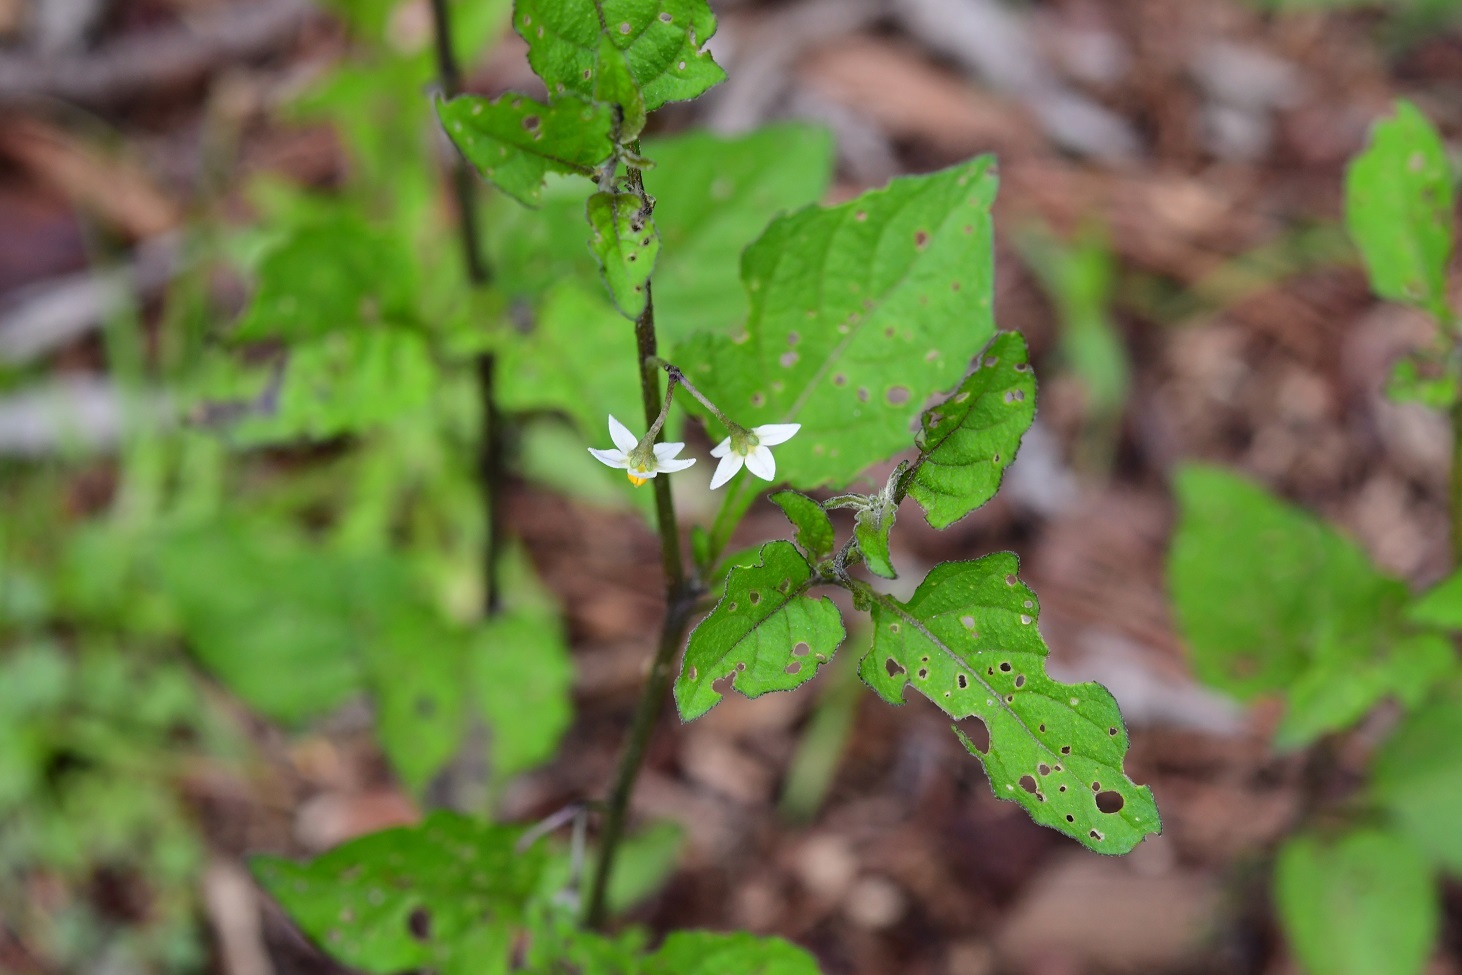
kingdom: Plantae
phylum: Tracheophyta
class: Magnoliopsida
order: Solanales
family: Solanaceae
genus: Solanum
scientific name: Solanum nigrescens
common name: Divine nightshade
